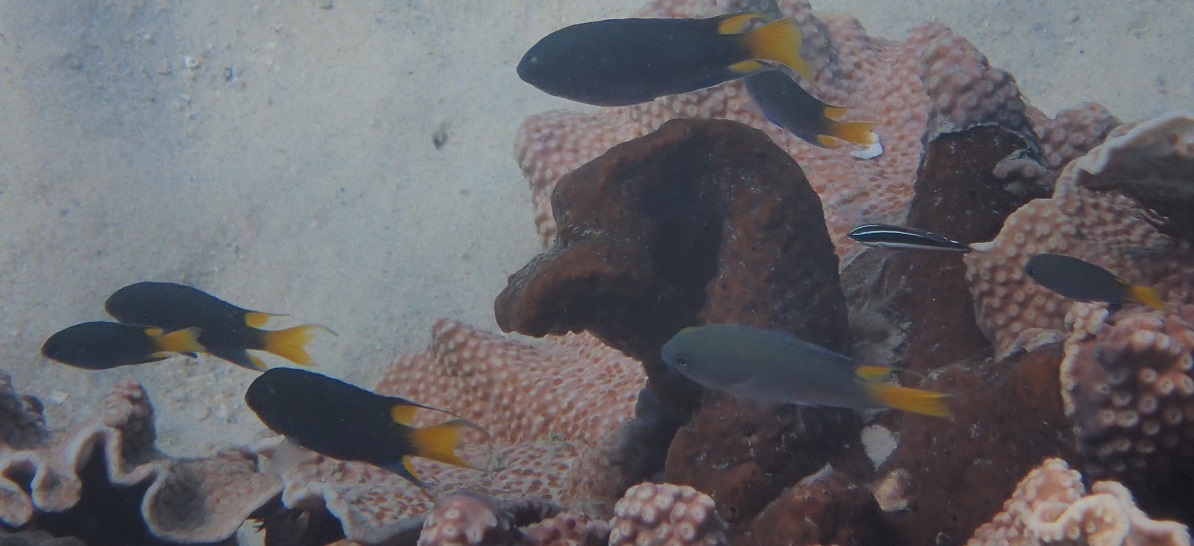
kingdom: Animalia
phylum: Chordata
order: Perciformes
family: Pomacentridae
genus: Neopomacentrus
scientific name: Neopomacentrus bankieri
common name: Chinese damsel
